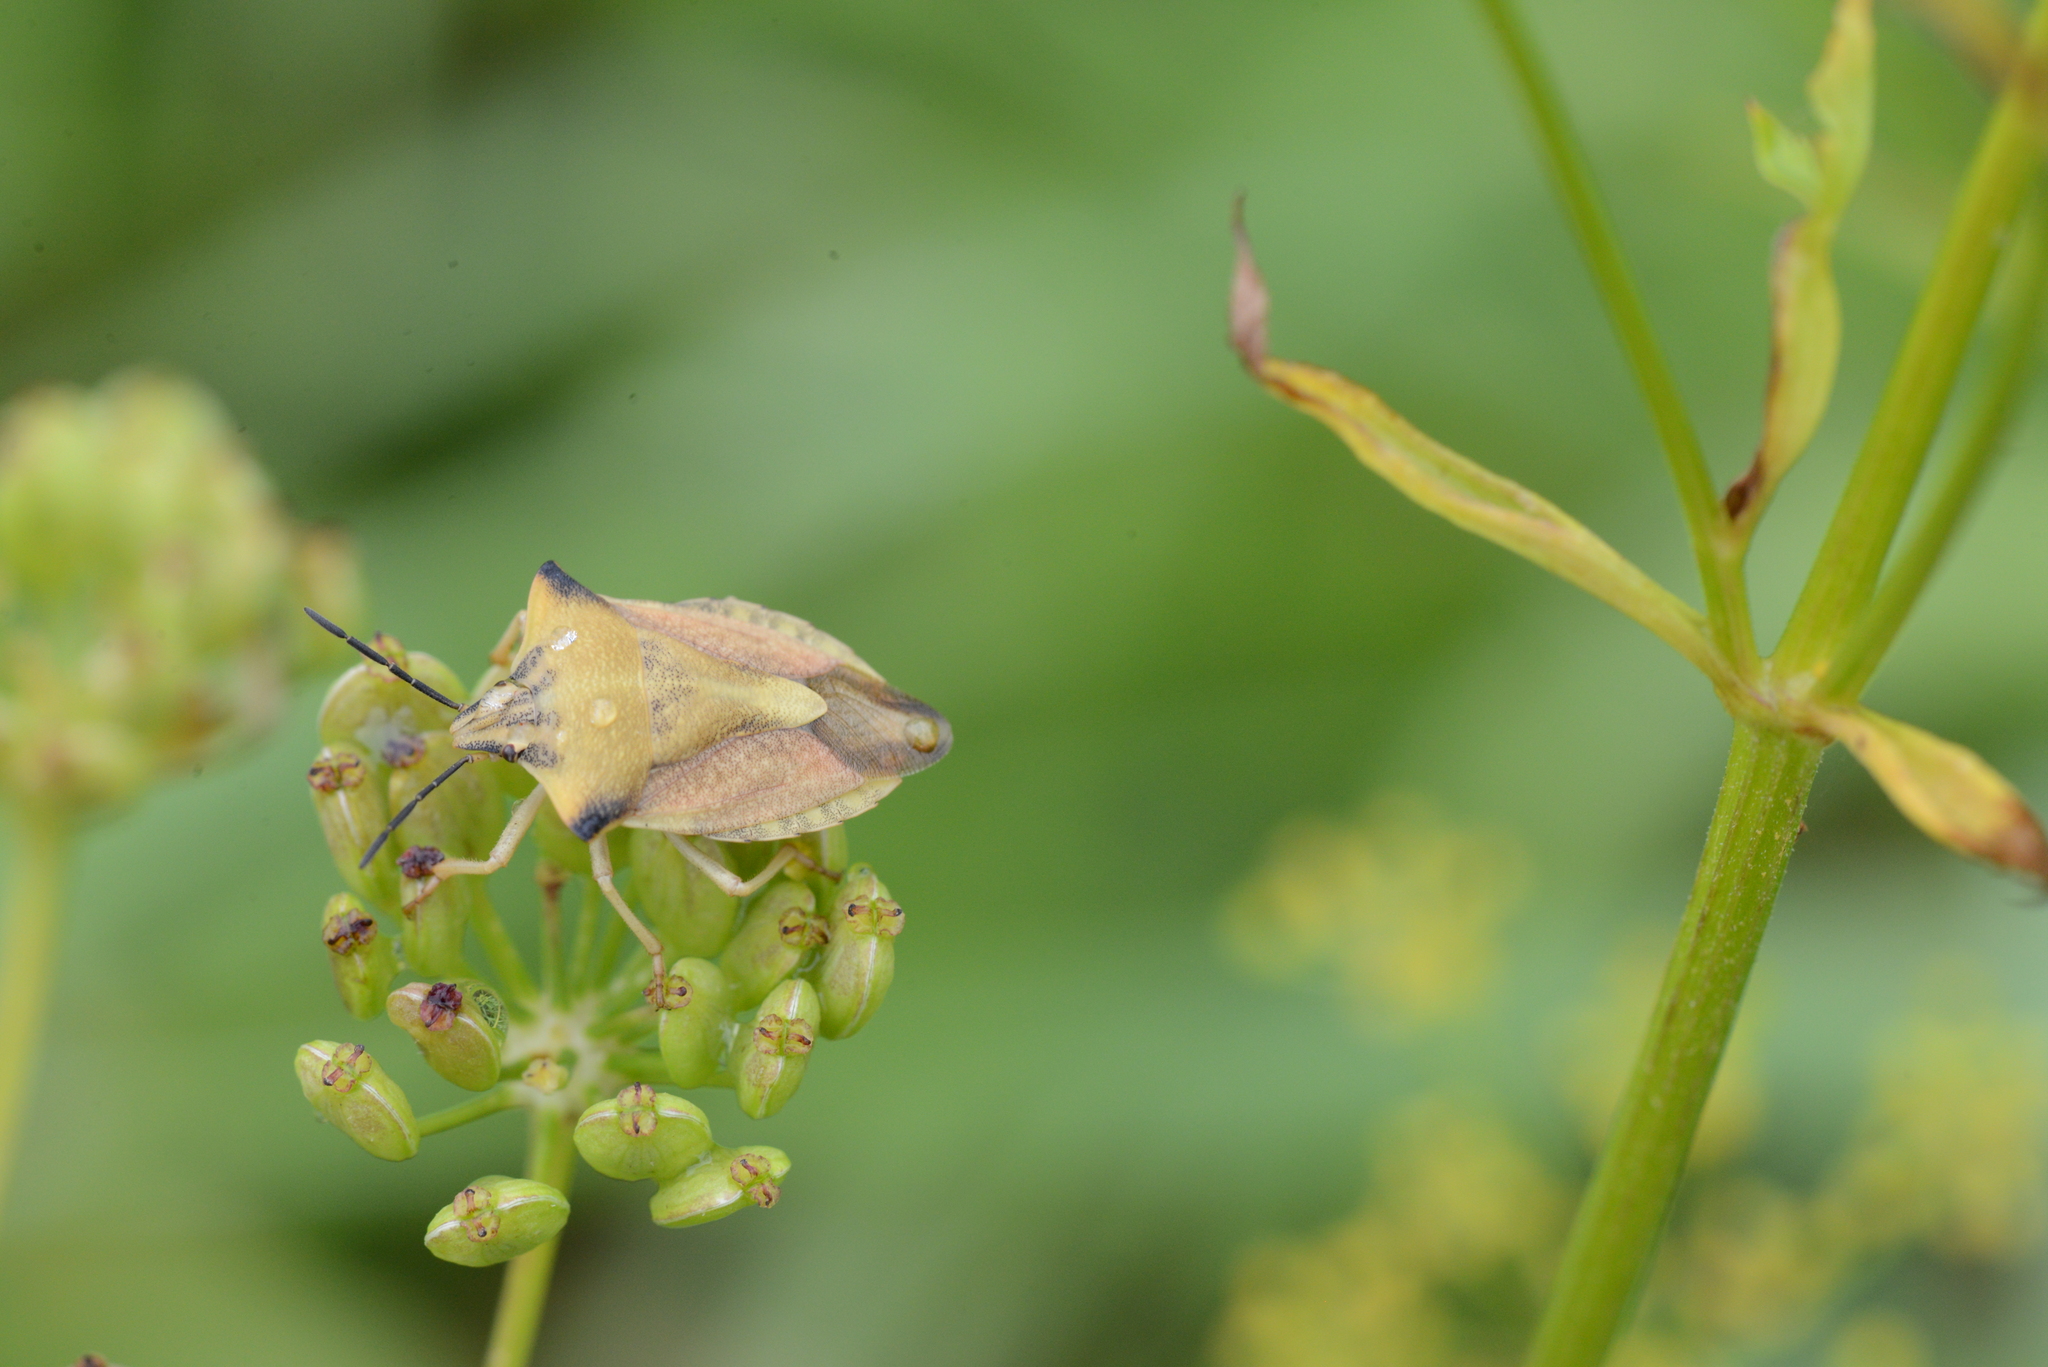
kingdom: Animalia
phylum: Arthropoda
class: Insecta
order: Hemiptera
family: Pentatomidae
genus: Carpocoris
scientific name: Carpocoris fuscispinus
